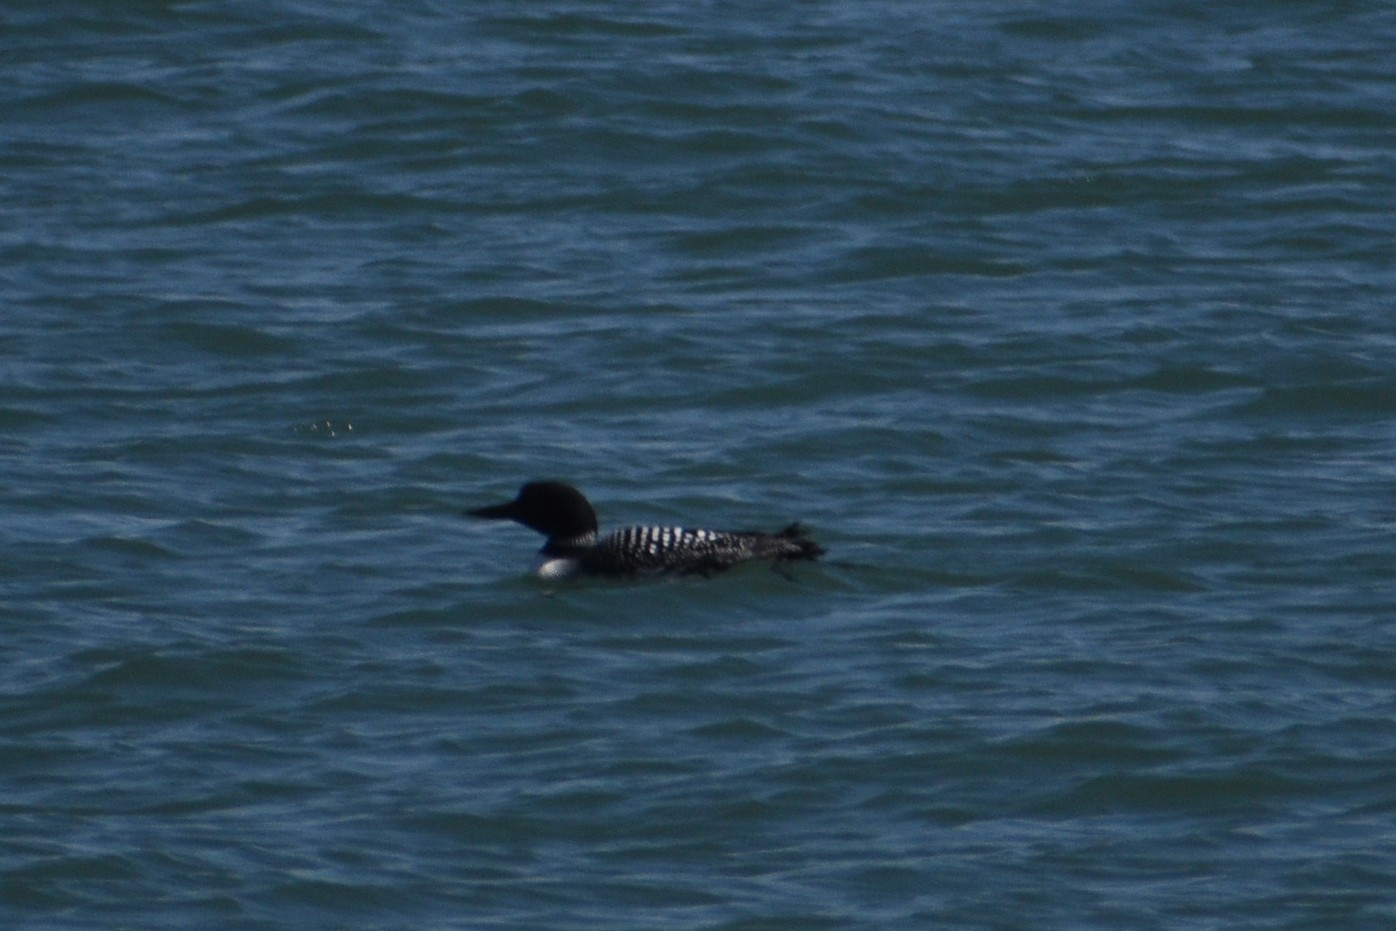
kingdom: Animalia
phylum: Chordata
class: Aves
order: Gaviiformes
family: Gaviidae
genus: Gavia
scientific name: Gavia immer
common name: Common loon
